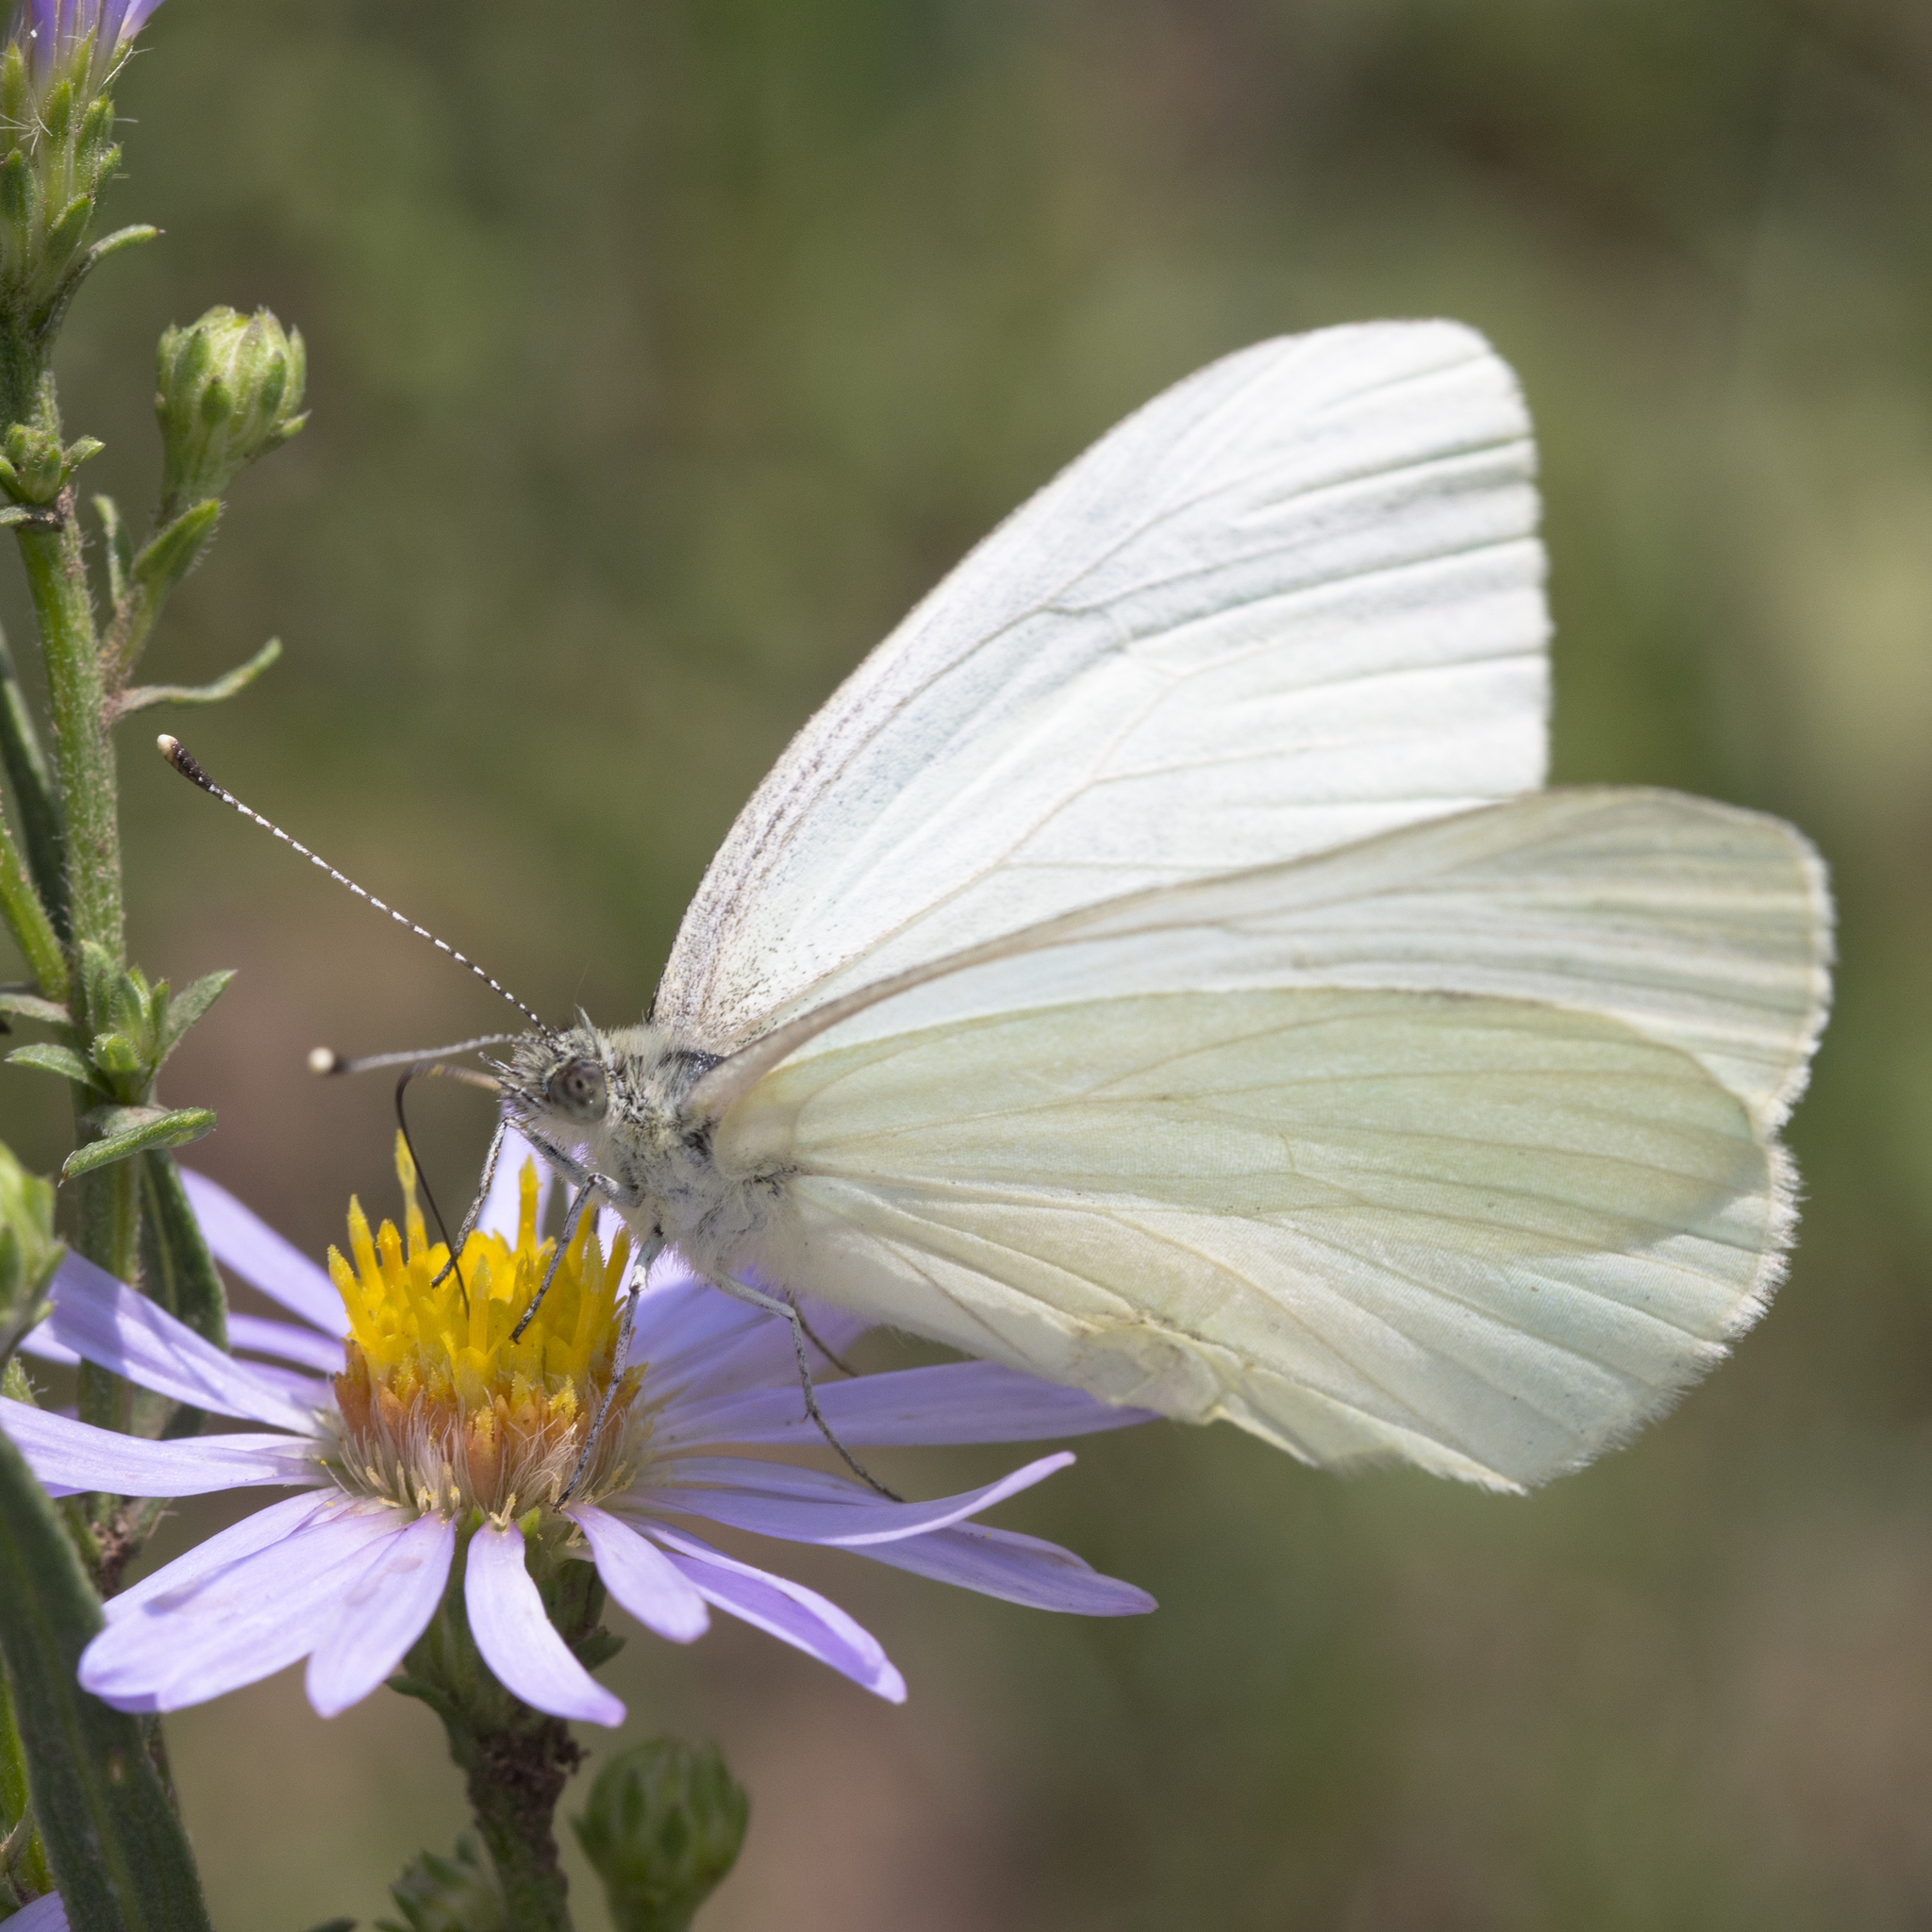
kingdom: Animalia
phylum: Arthropoda
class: Insecta
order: Lepidoptera
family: Pieridae
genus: Pieris
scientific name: Pieris marginalis
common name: Margined white
